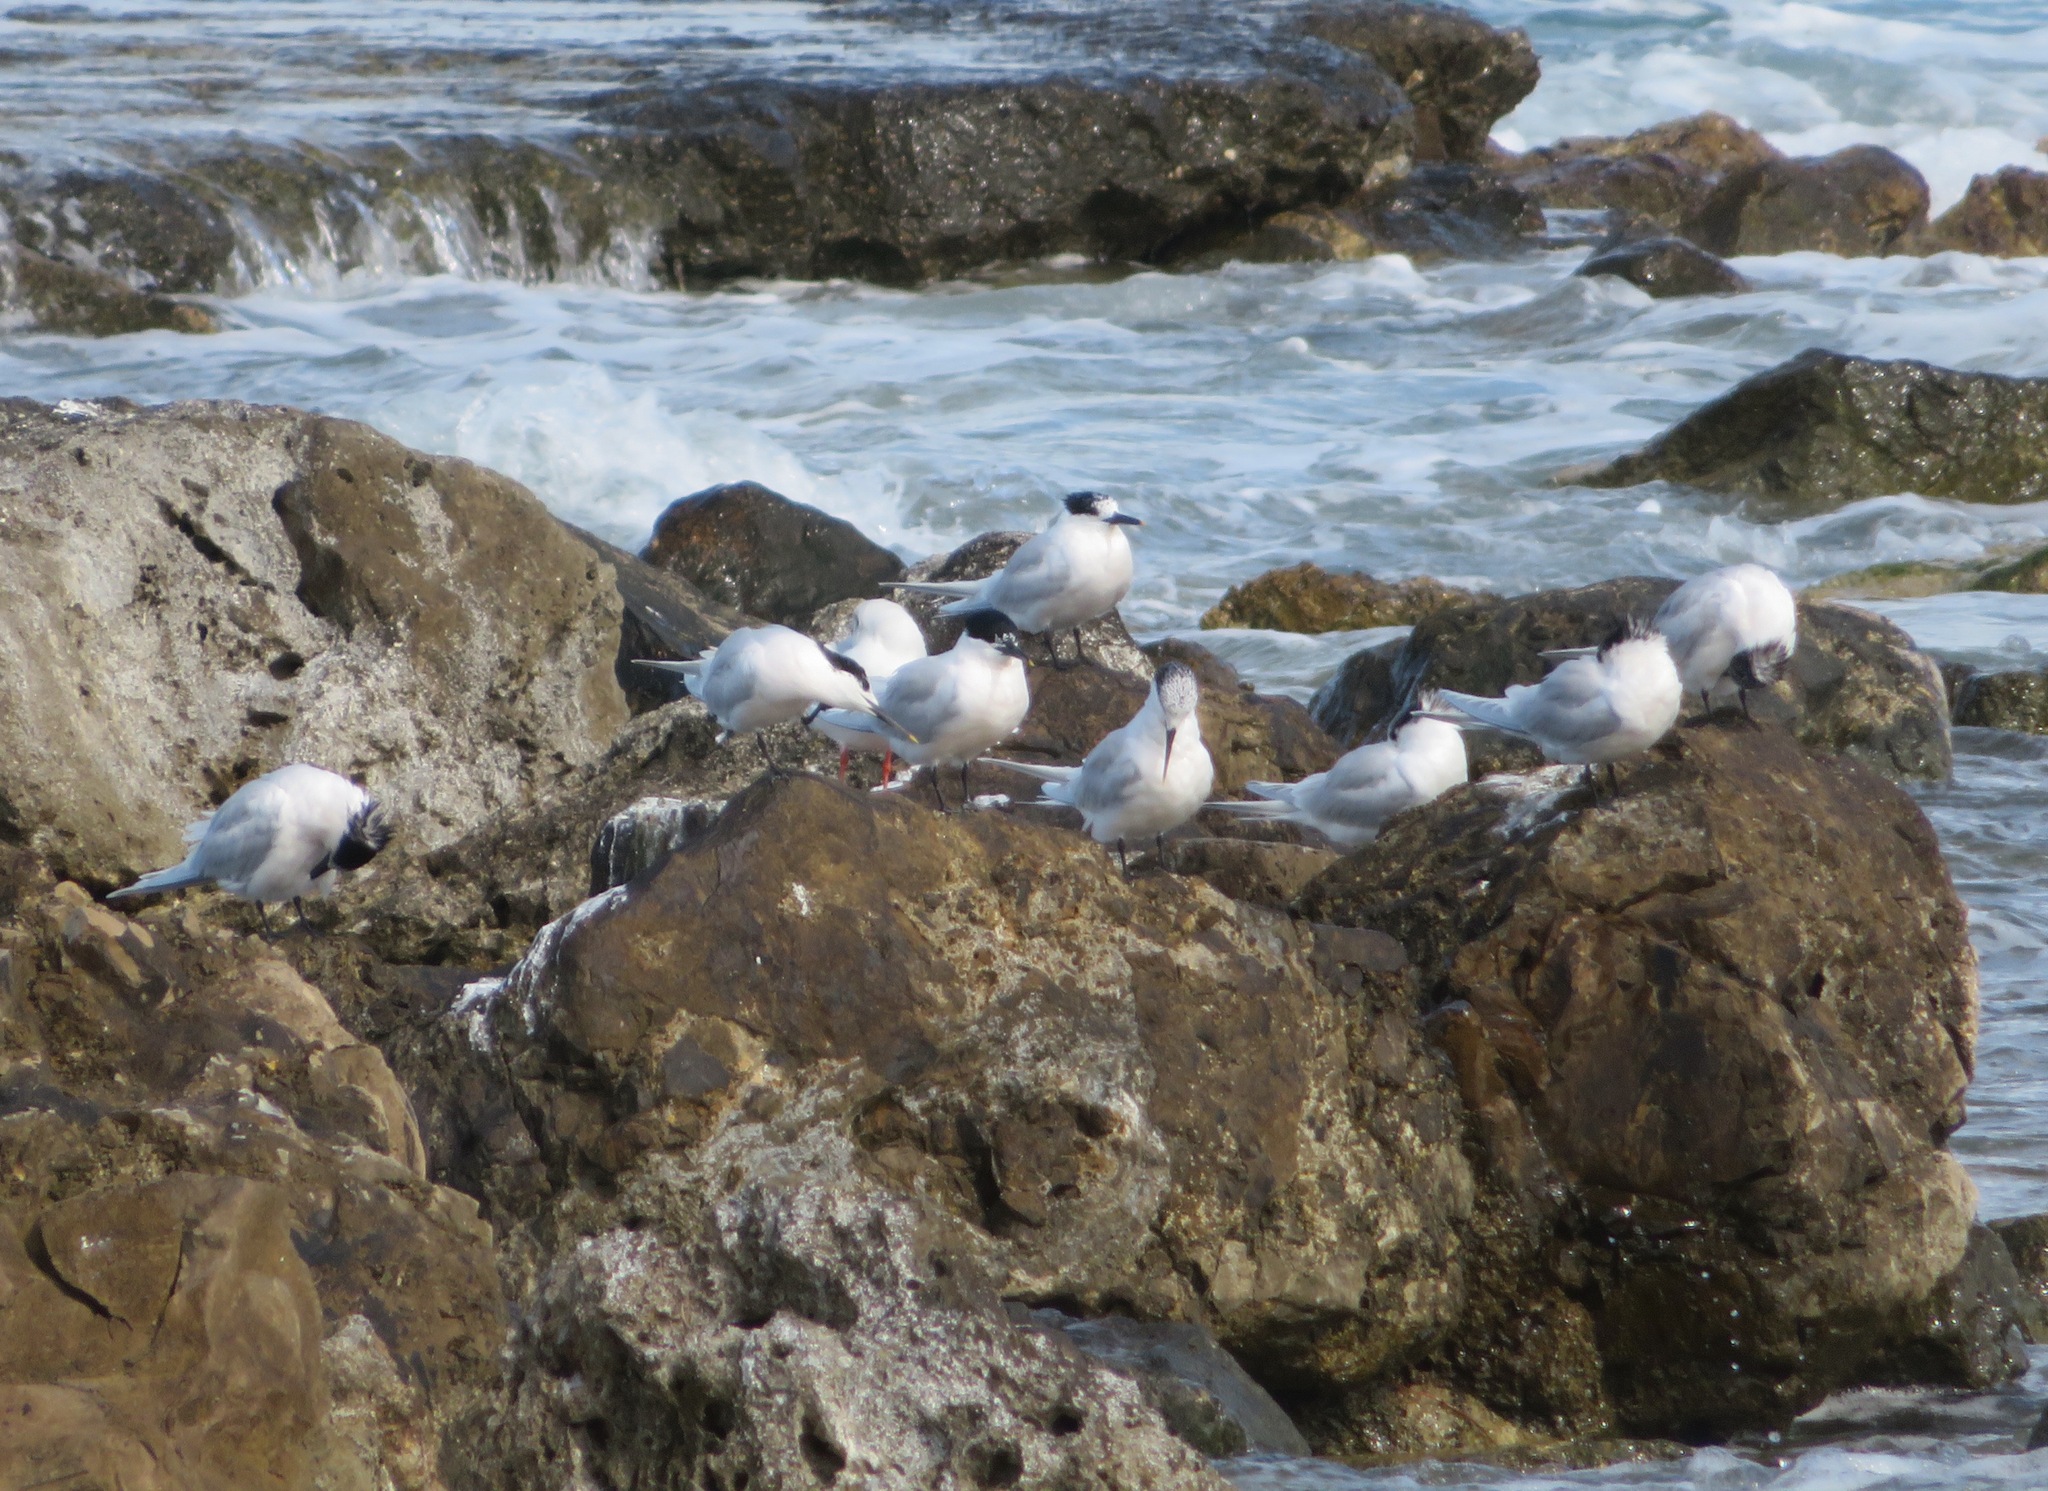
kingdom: Animalia
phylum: Chordata
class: Aves
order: Charadriiformes
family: Laridae
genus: Thalasseus
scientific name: Thalasseus sandvicensis
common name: Sandwich tern
